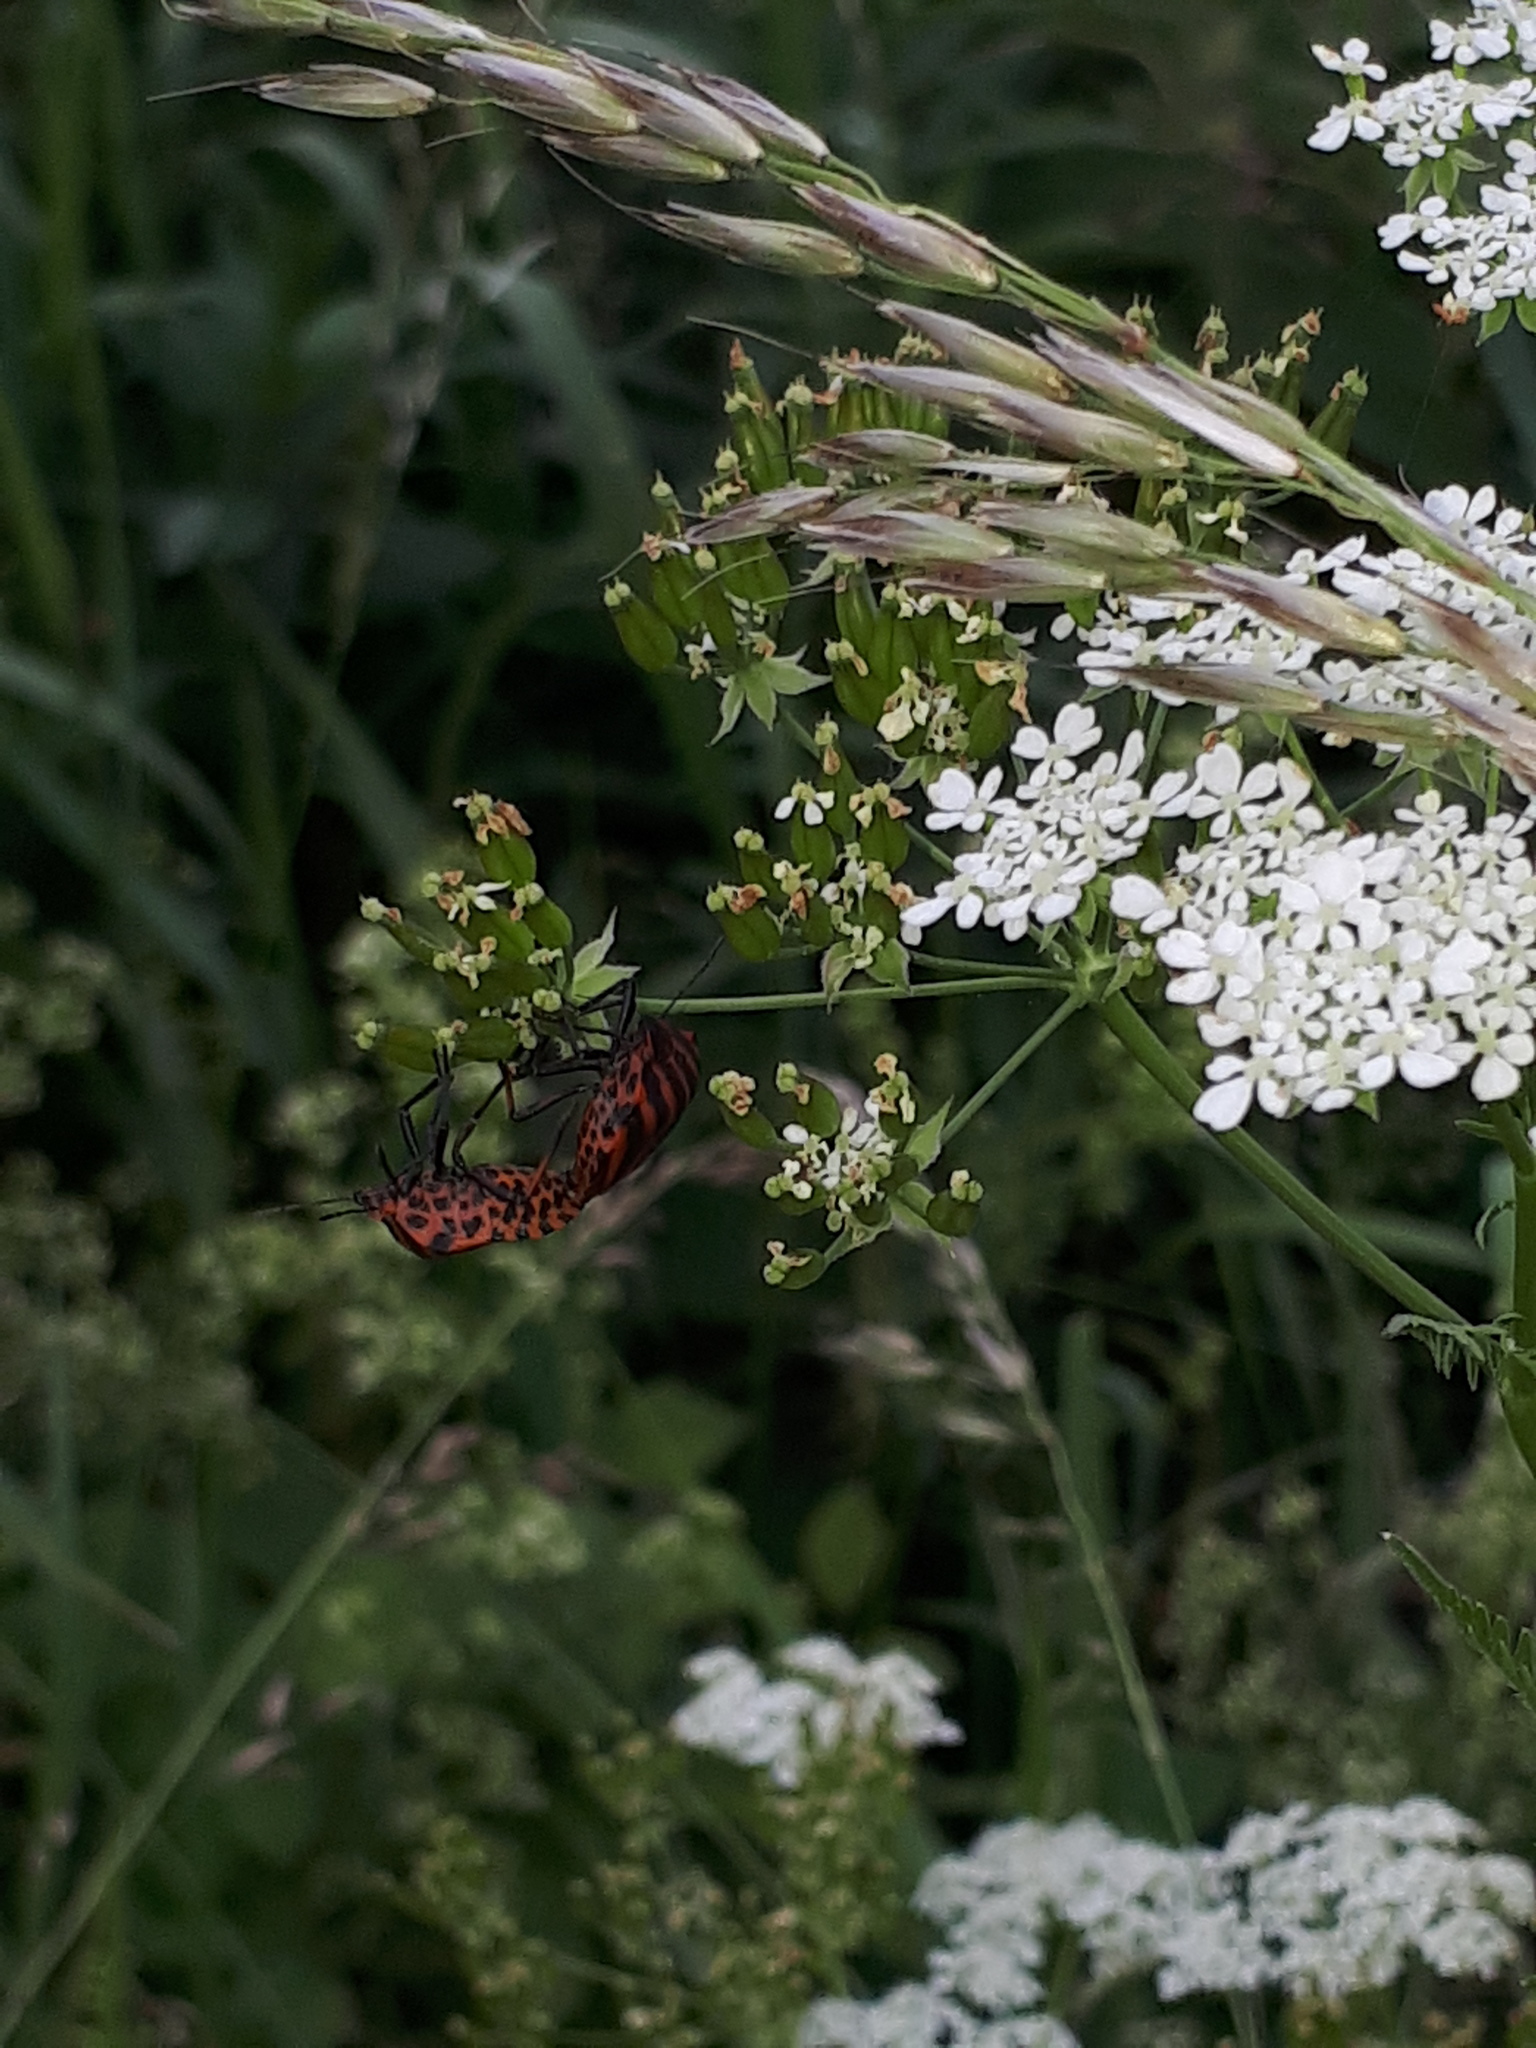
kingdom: Animalia
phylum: Arthropoda
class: Insecta
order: Hemiptera
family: Pentatomidae
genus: Graphosoma
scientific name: Graphosoma italicum
